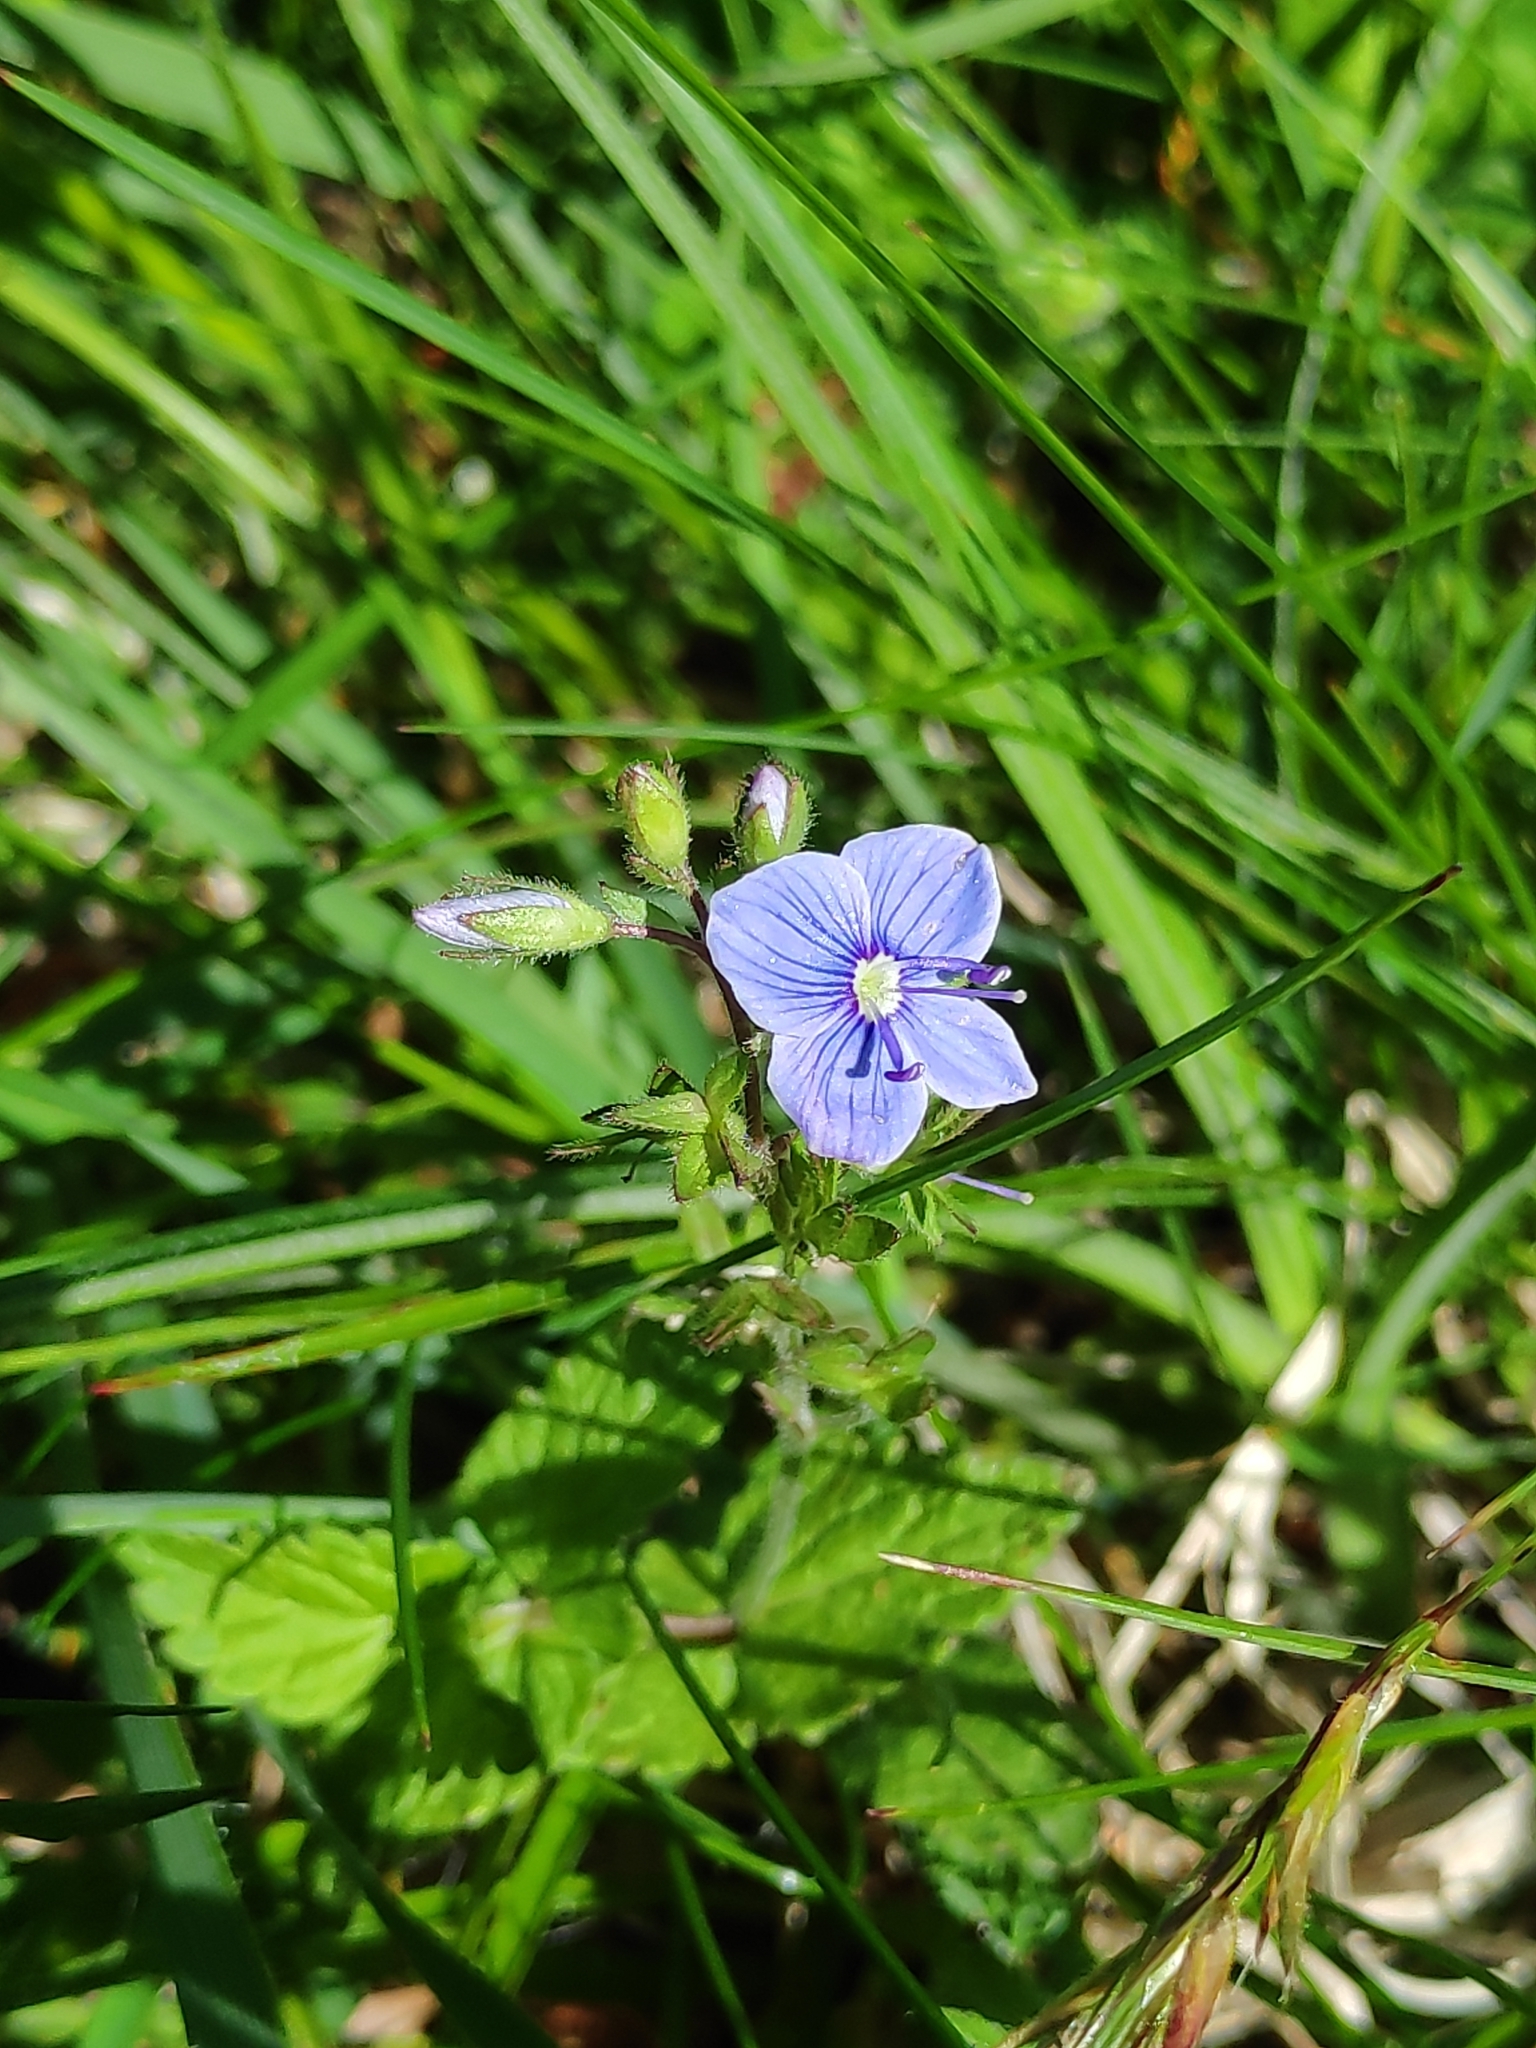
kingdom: Plantae
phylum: Tracheophyta
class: Magnoliopsida
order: Lamiales
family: Plantaginaceae
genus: Veronica
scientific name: Veronica chamaedrys
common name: Germander speedwell
